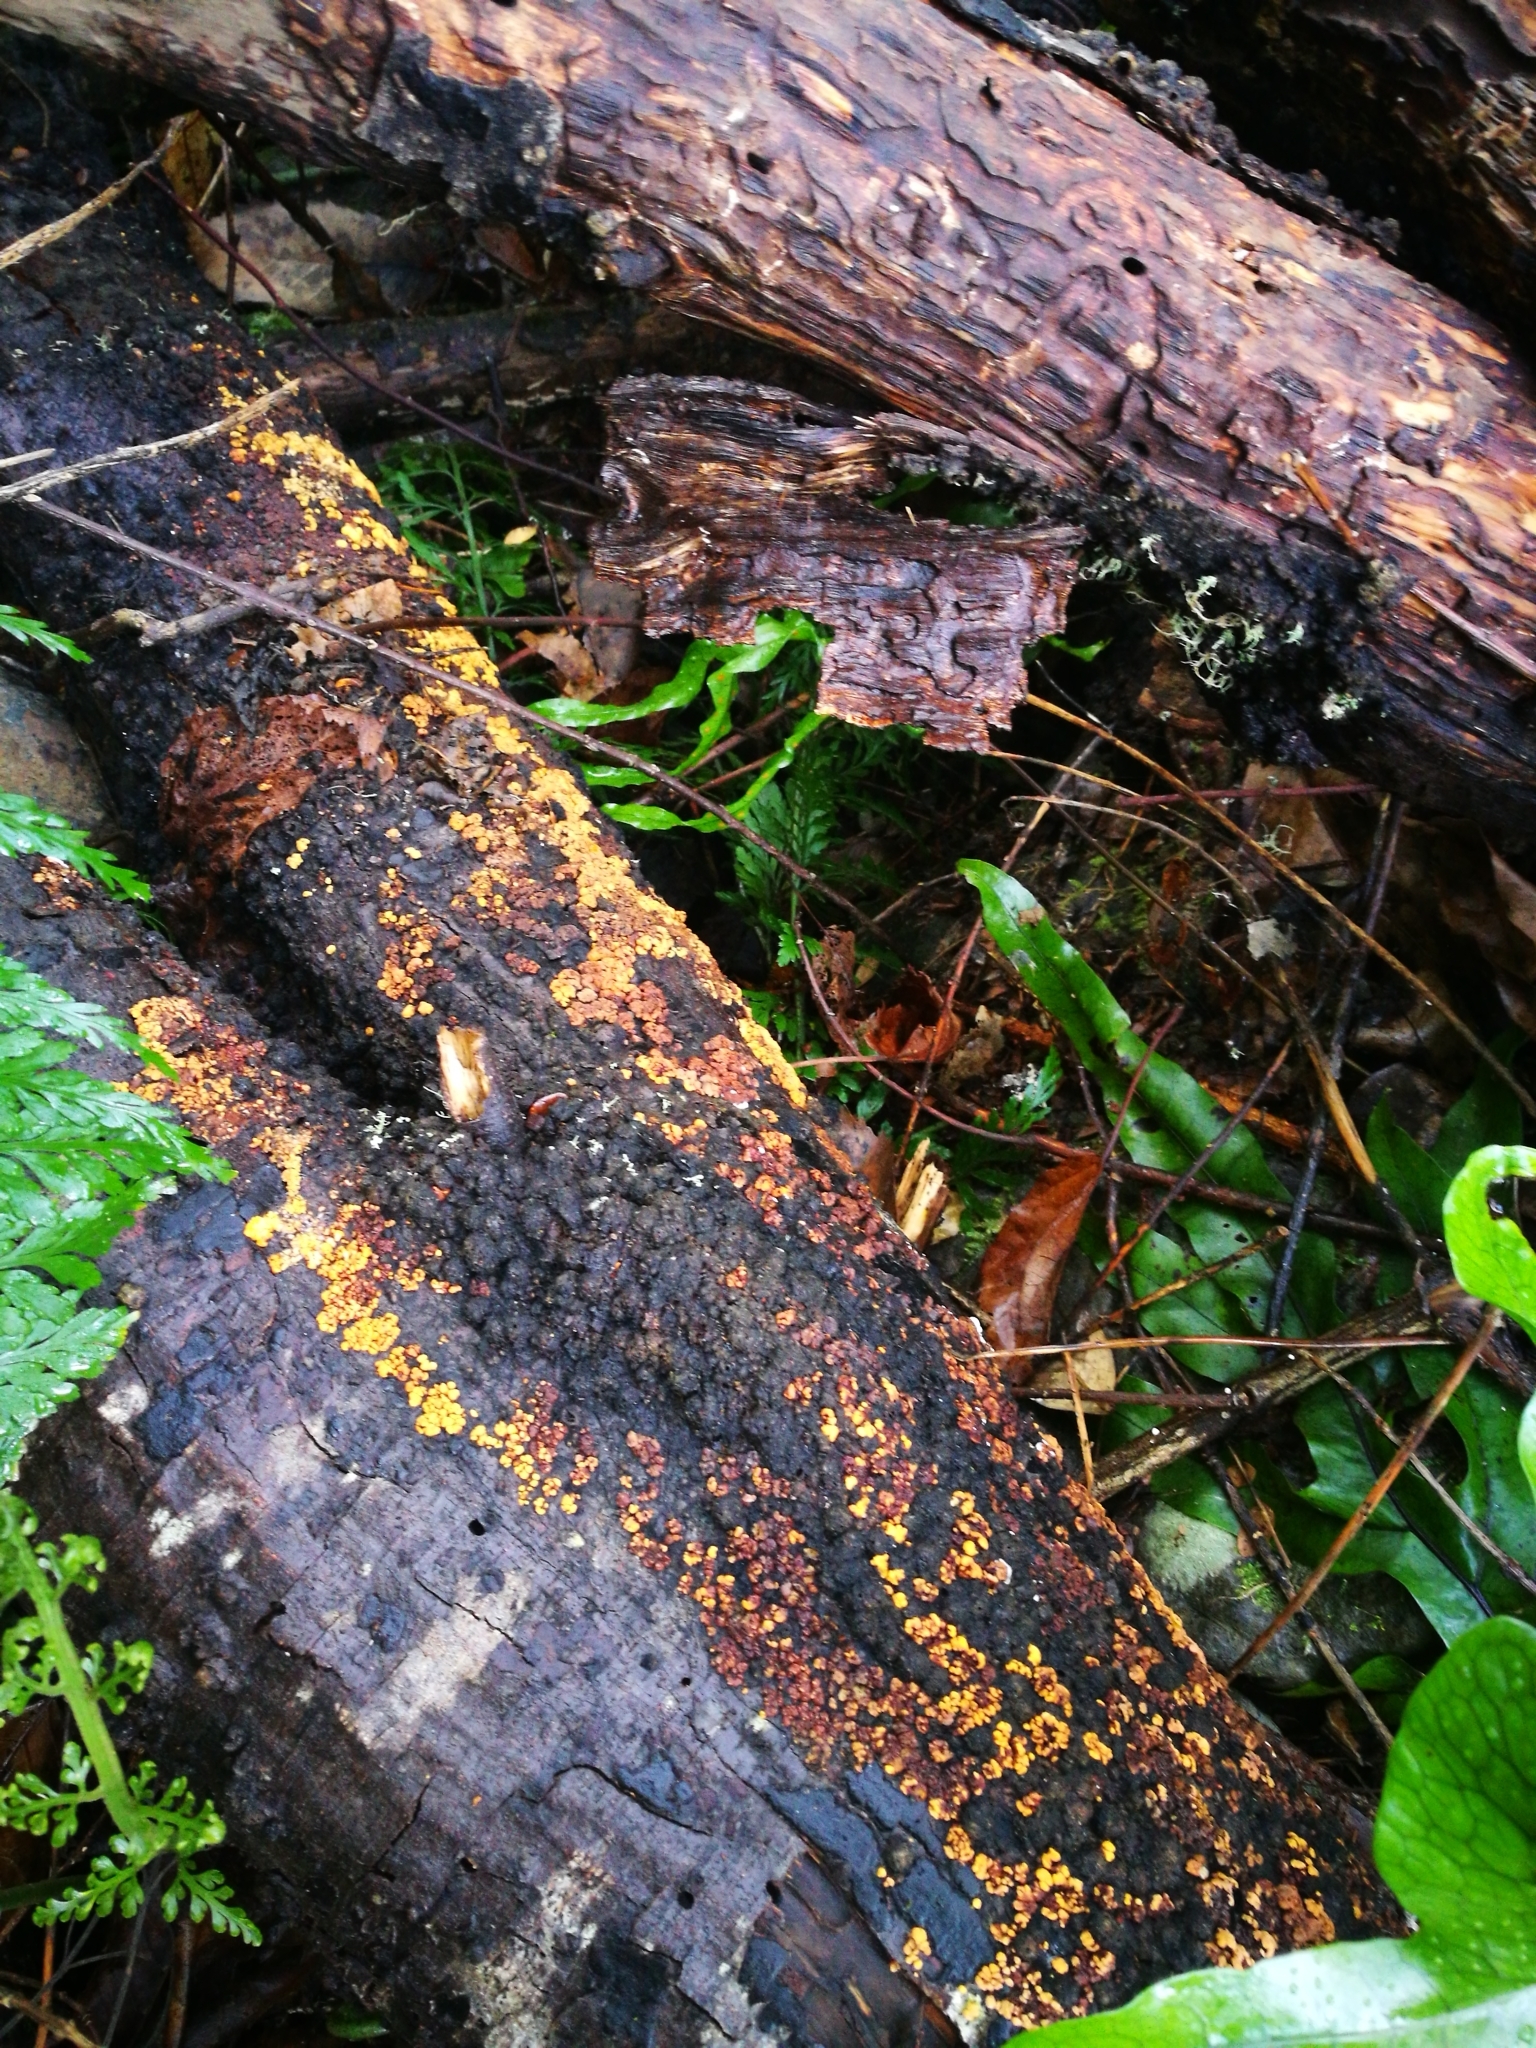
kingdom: Fungi
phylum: Basidiomycota
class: Agaricomycetes
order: Russulales
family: Stereaceae
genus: Aleurodiscus
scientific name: Aleurodiscus berggrenii
